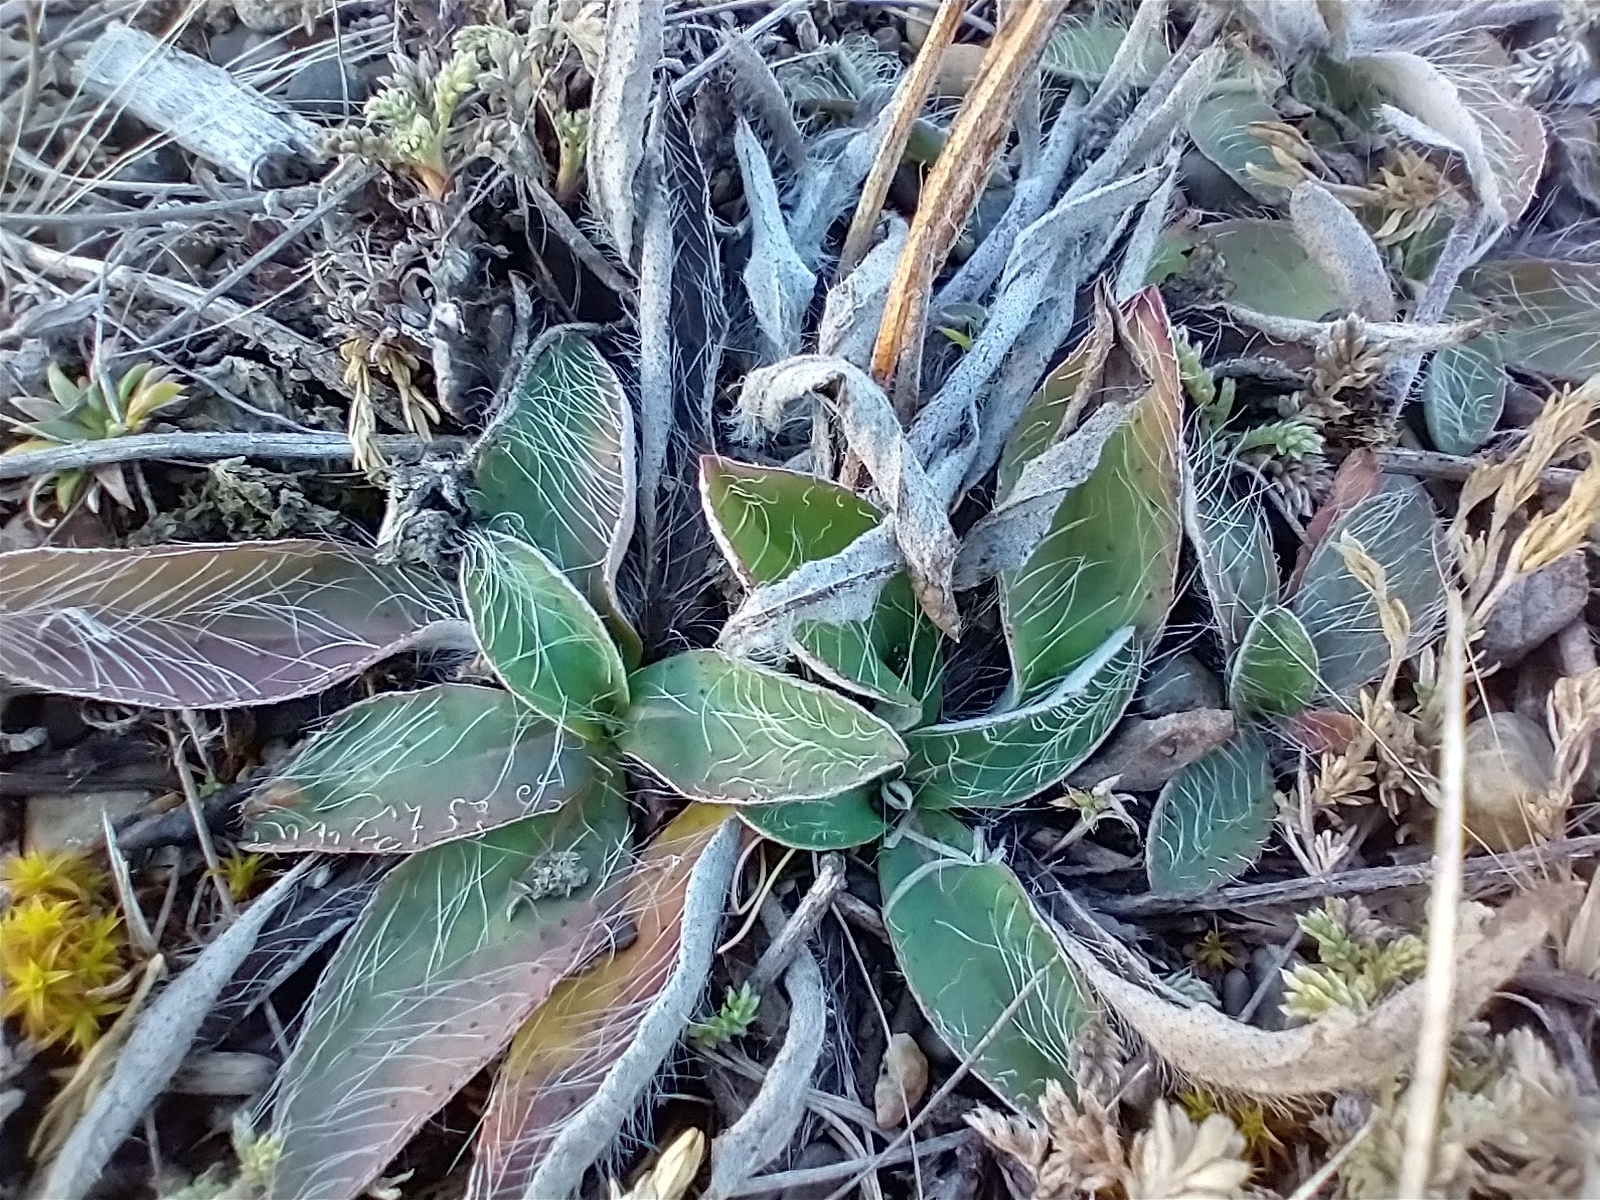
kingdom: Plantae
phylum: Tracheophyta
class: Magnoliopsida
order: Asterales
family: Asteraceae
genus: Pilosella
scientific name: Pilosella officinarum
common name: Mouse-ear hawkweed
